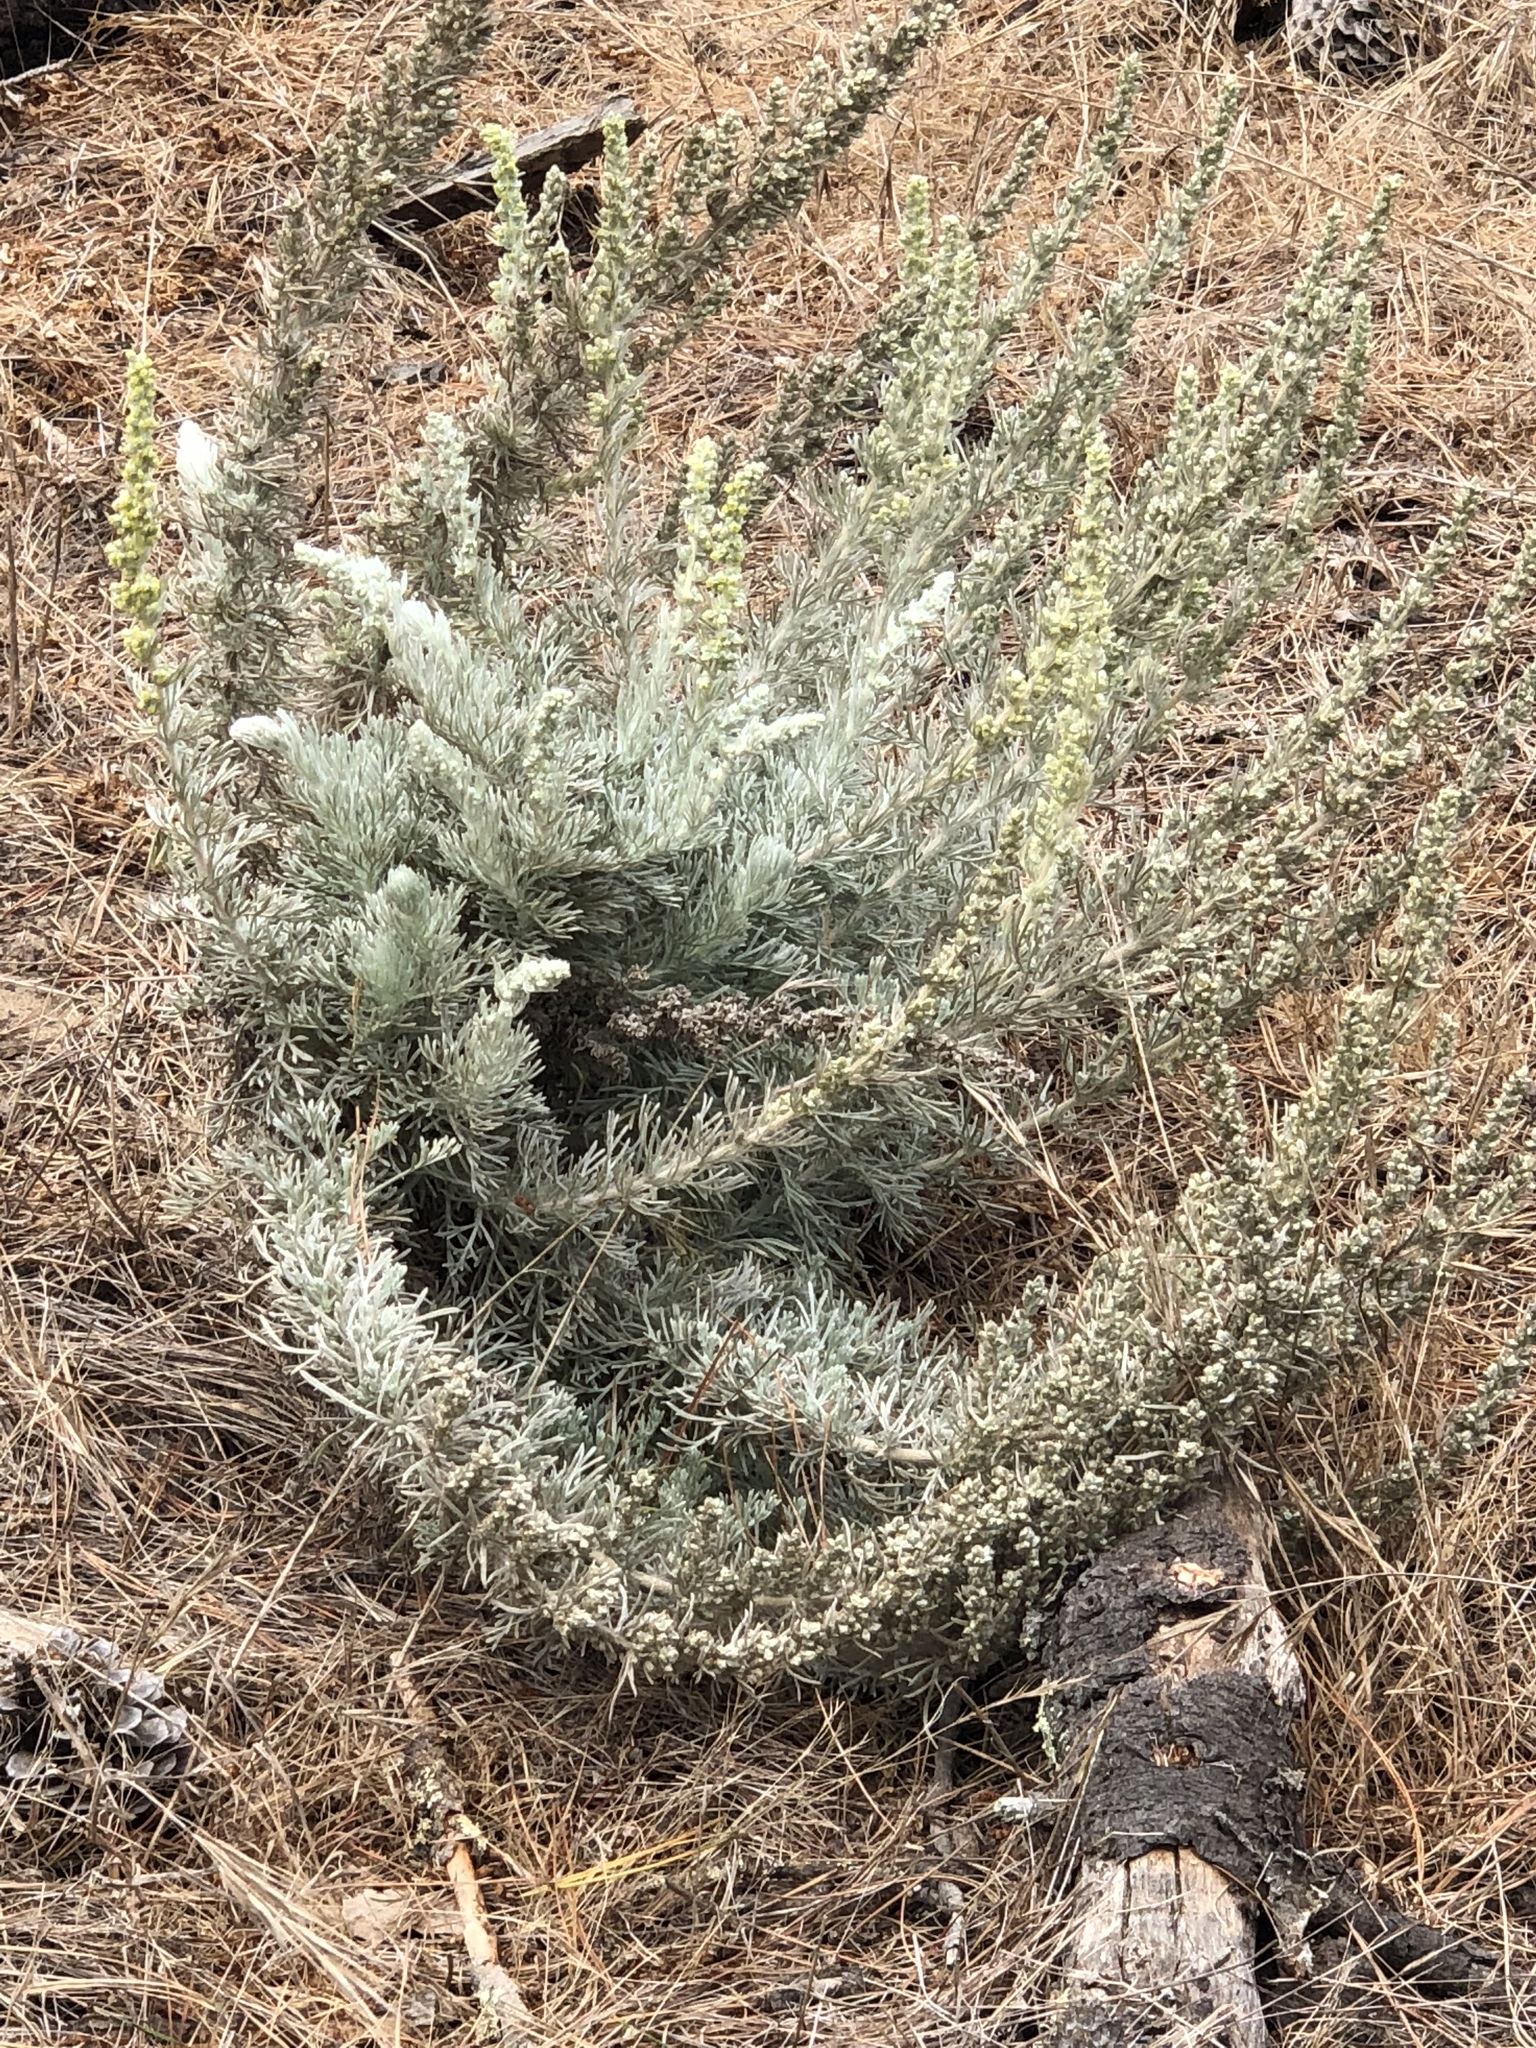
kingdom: Plantae
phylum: Tracheophyta
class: Magnoliopsida
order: Asterales
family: Asteraceae
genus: Artemisia
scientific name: Artemisia californica
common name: California sagebrush
